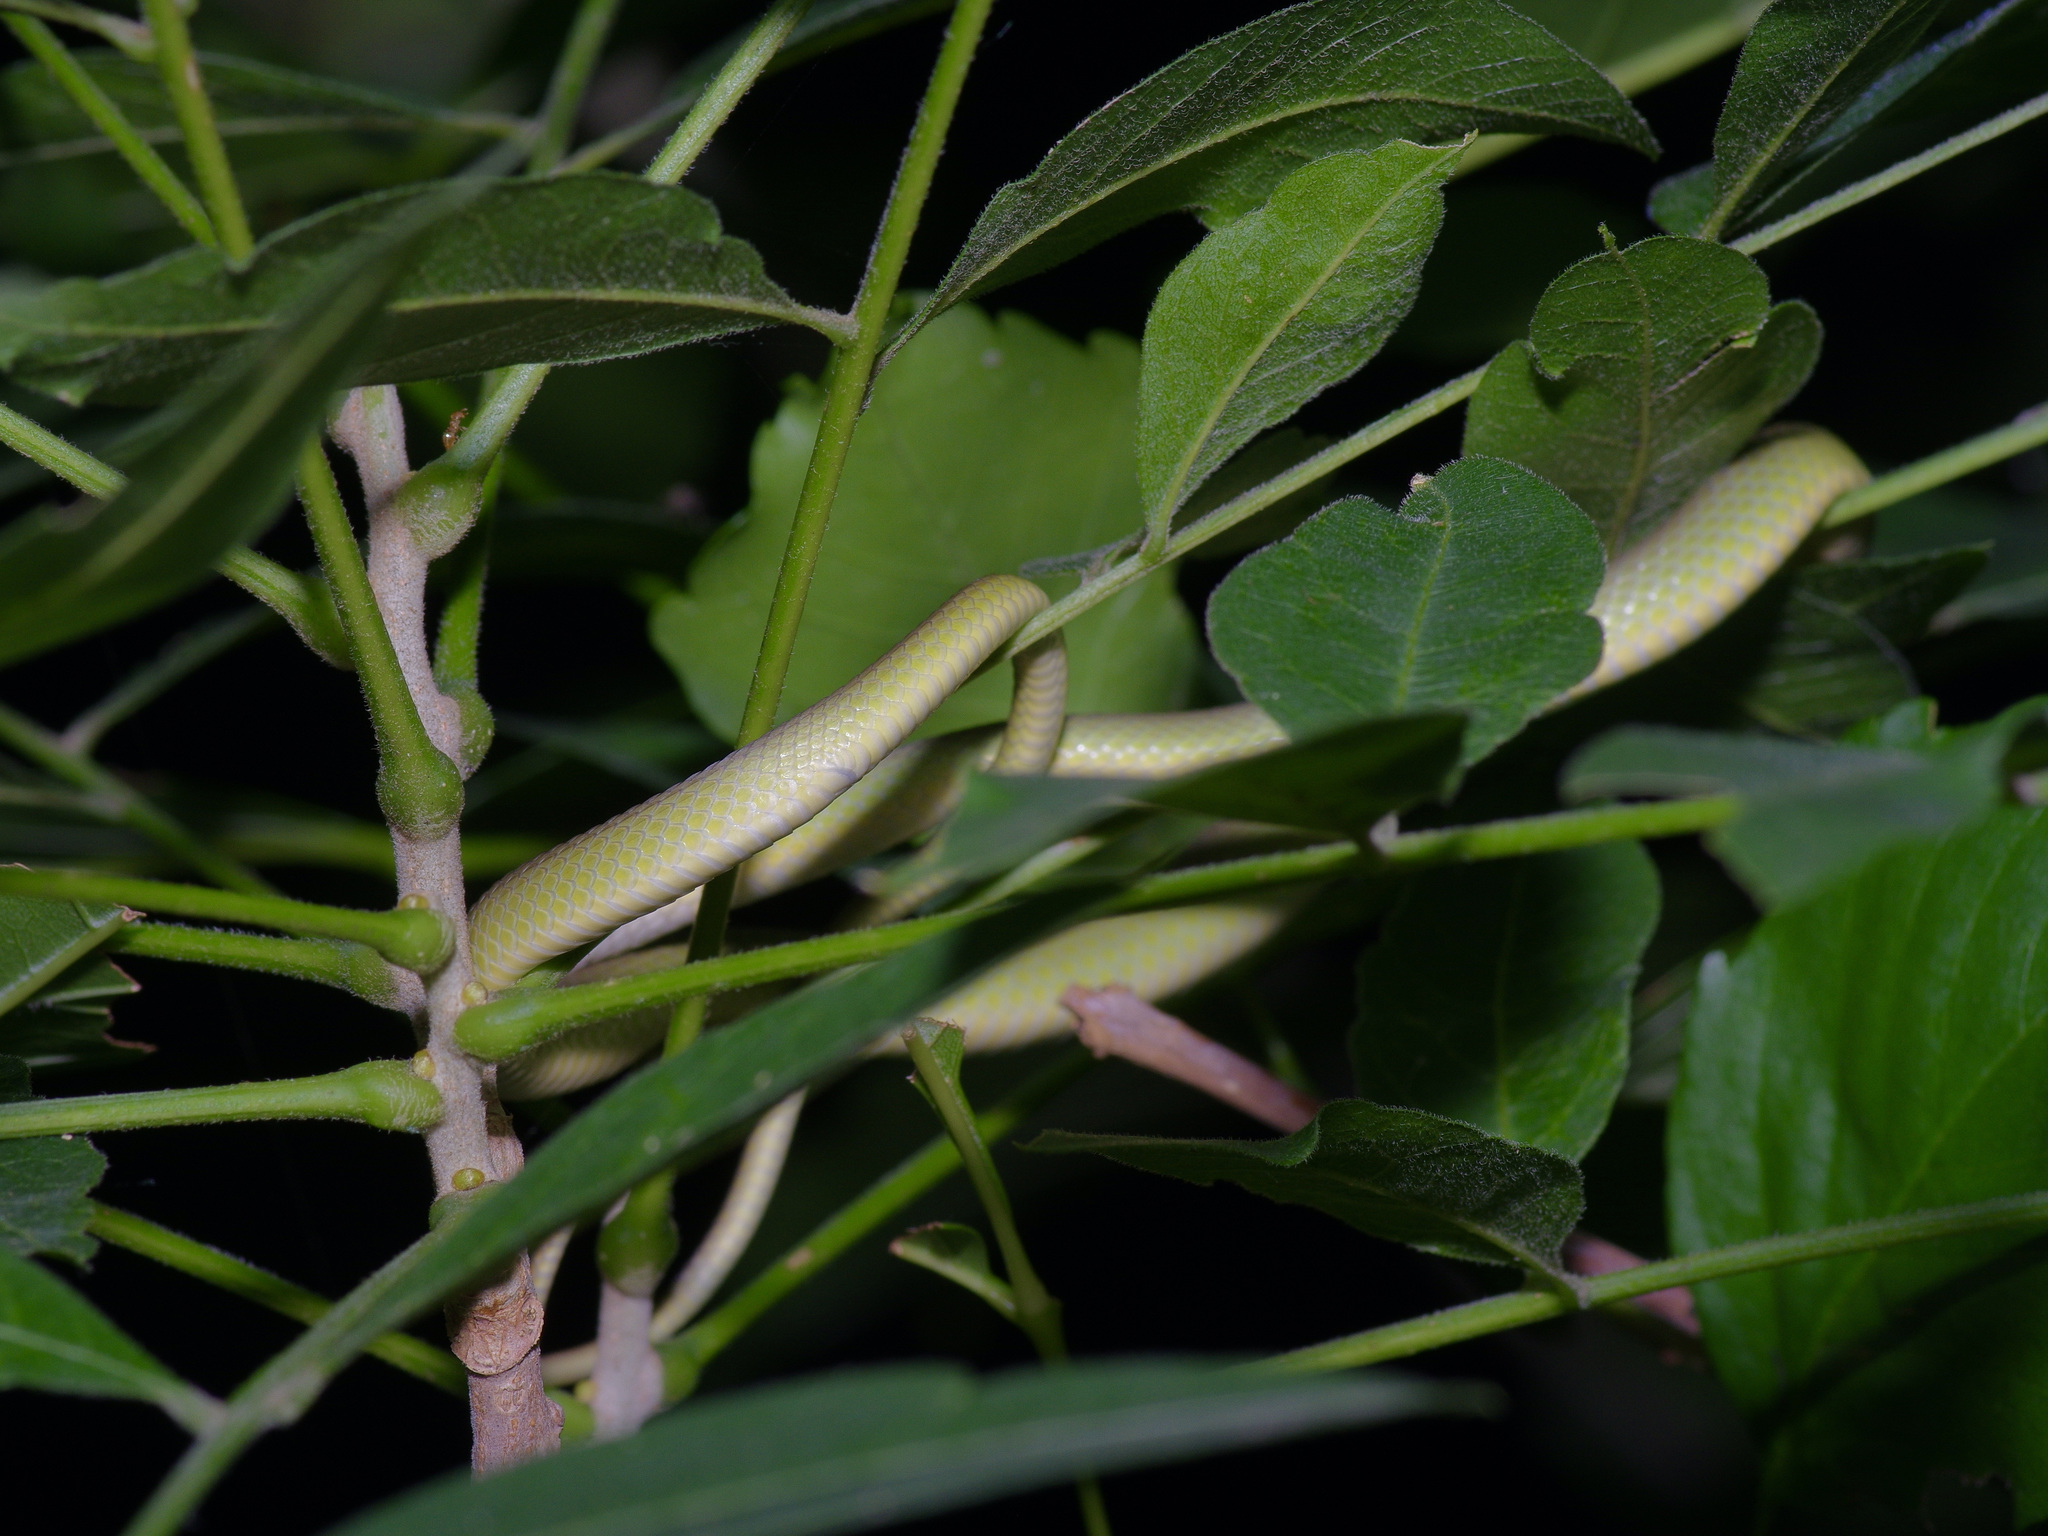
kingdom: Animalia
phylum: Chordata
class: Squamata
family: Colubridae
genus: Opheodrys
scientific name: Opheodrys aestivus
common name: Rough greensnake
